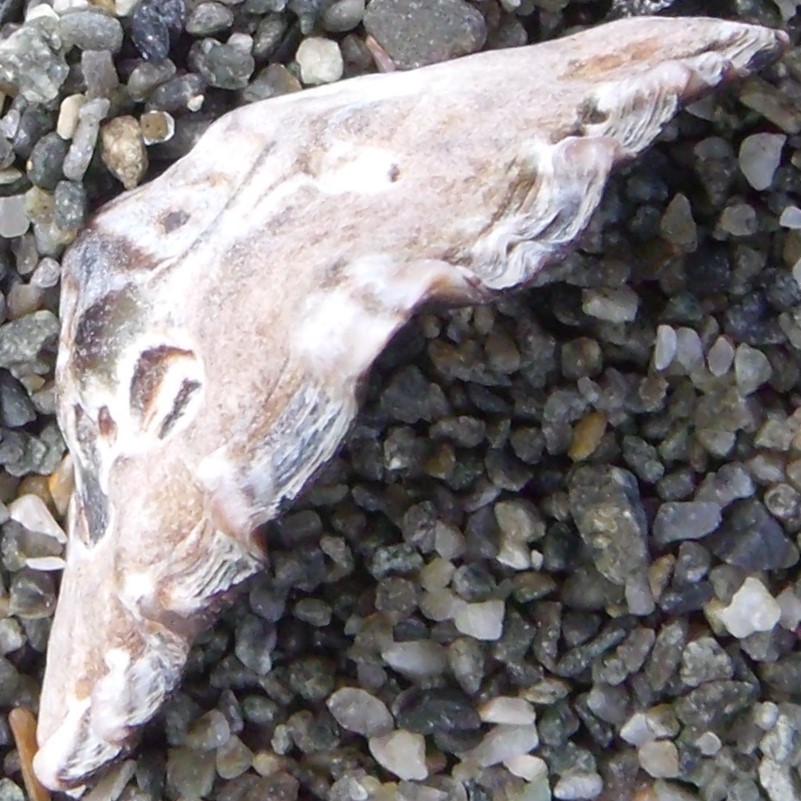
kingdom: Animalia
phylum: Mollusca
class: Gastropoda
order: Siphonariida
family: Siphonariidae
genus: Siphonaria
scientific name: Siphonaria australis
